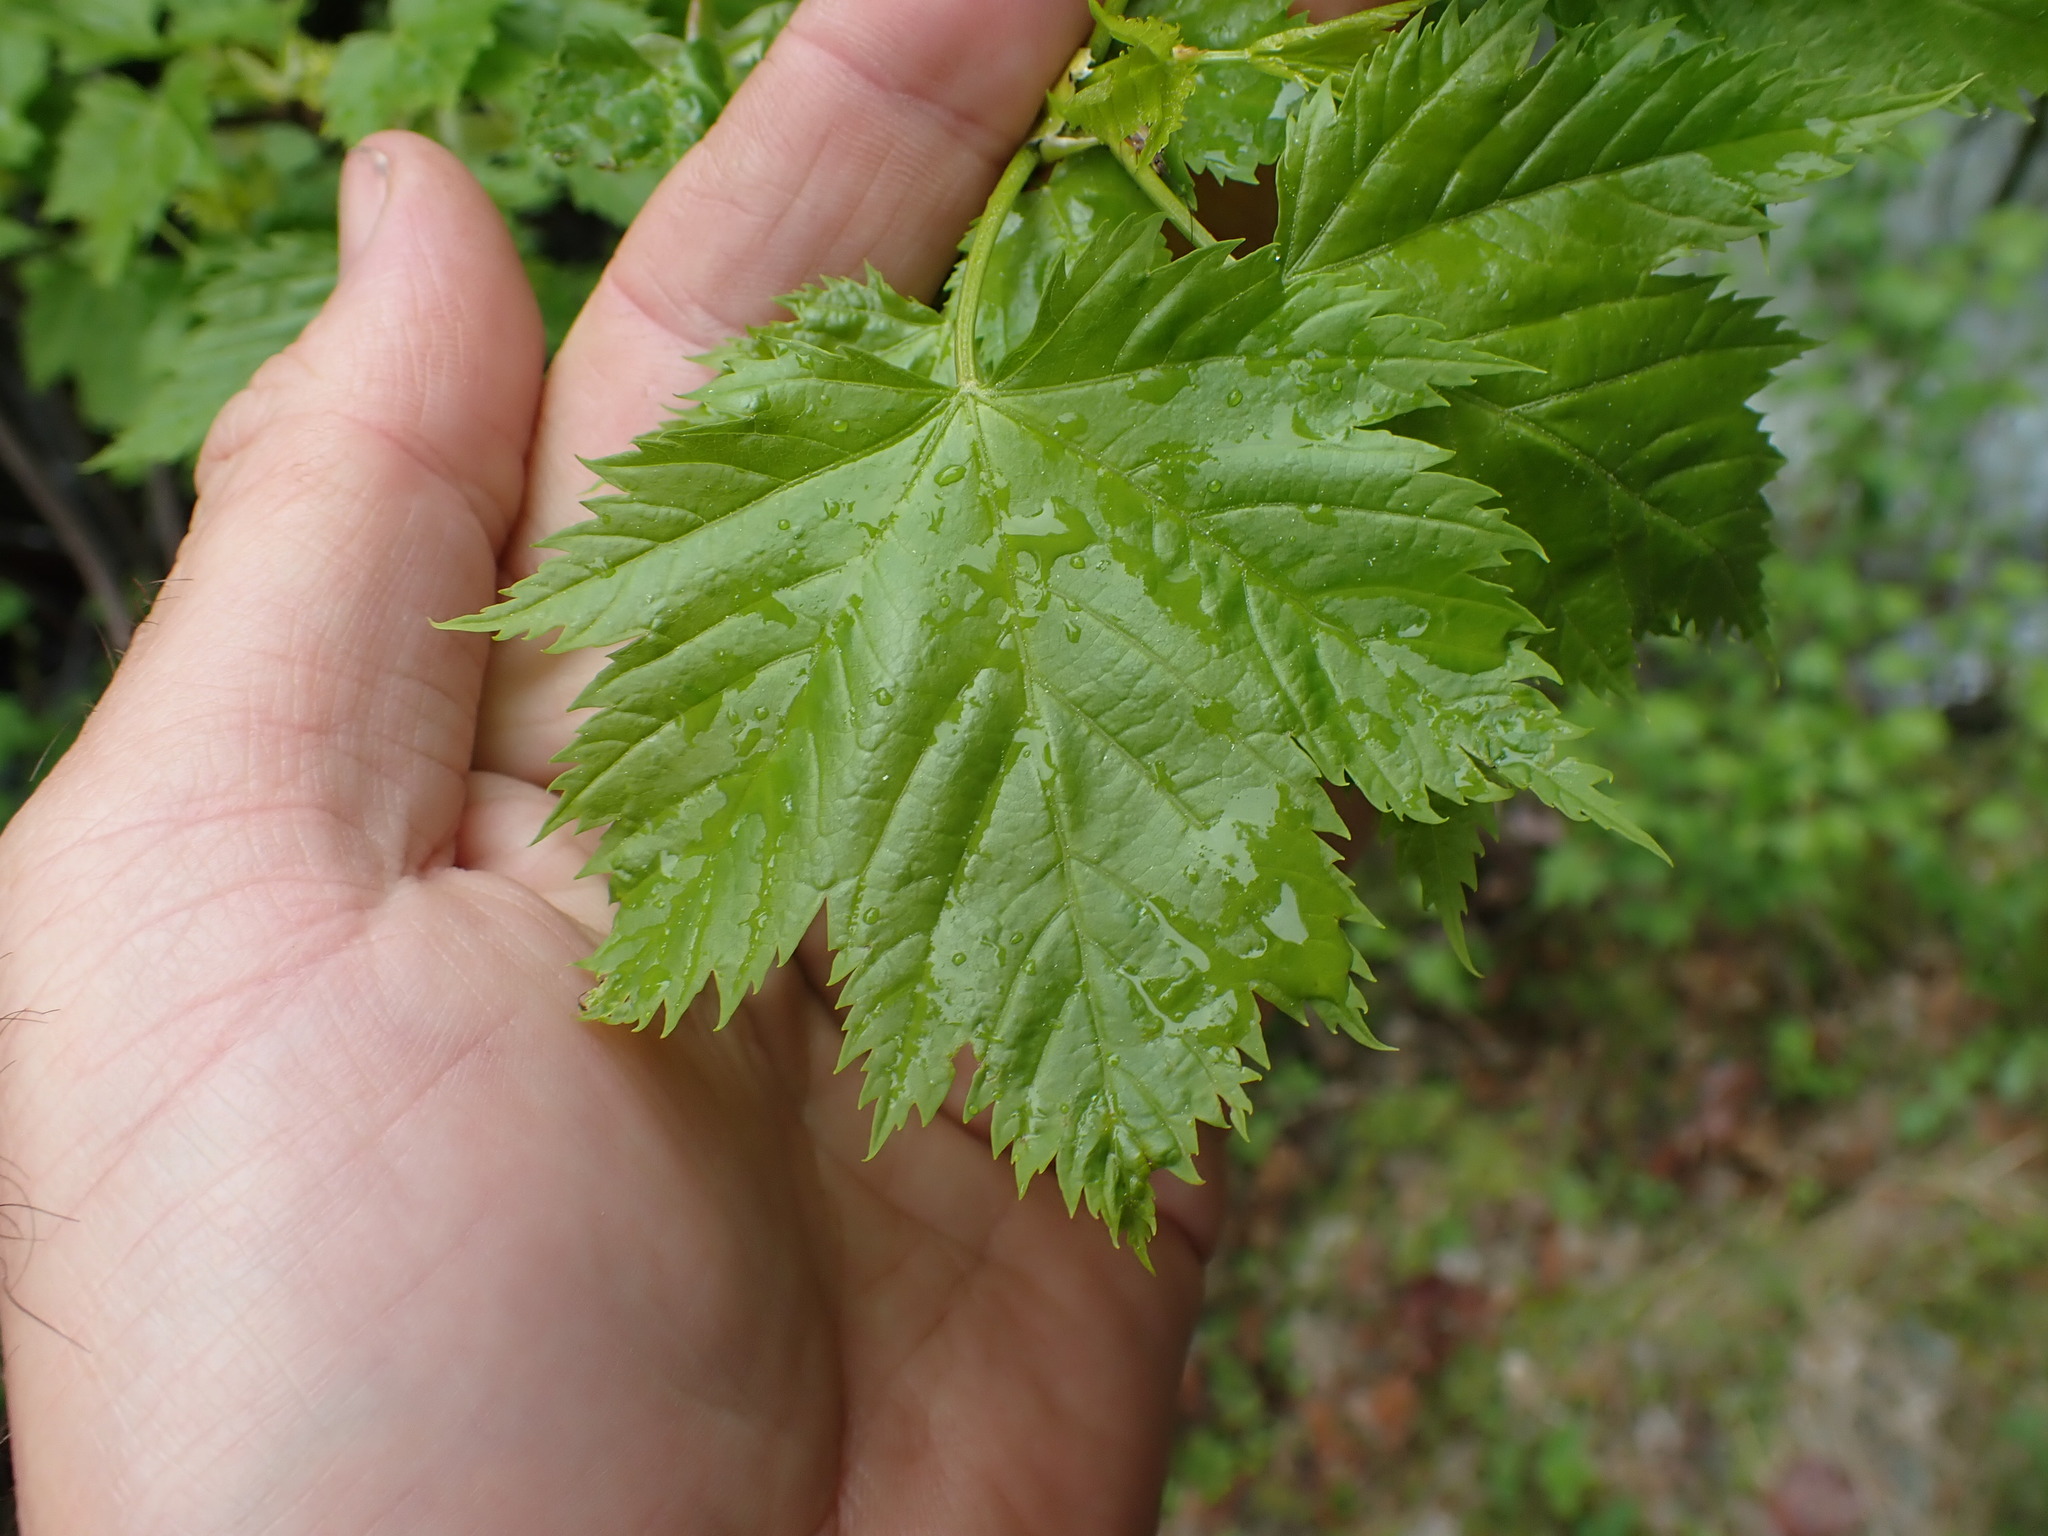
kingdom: Plantae
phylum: Tracheophyta
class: Magnoliopsida
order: Sapindales
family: Sapindaceae
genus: Acer
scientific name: Acer glabrum
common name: Rocky mountain maple
